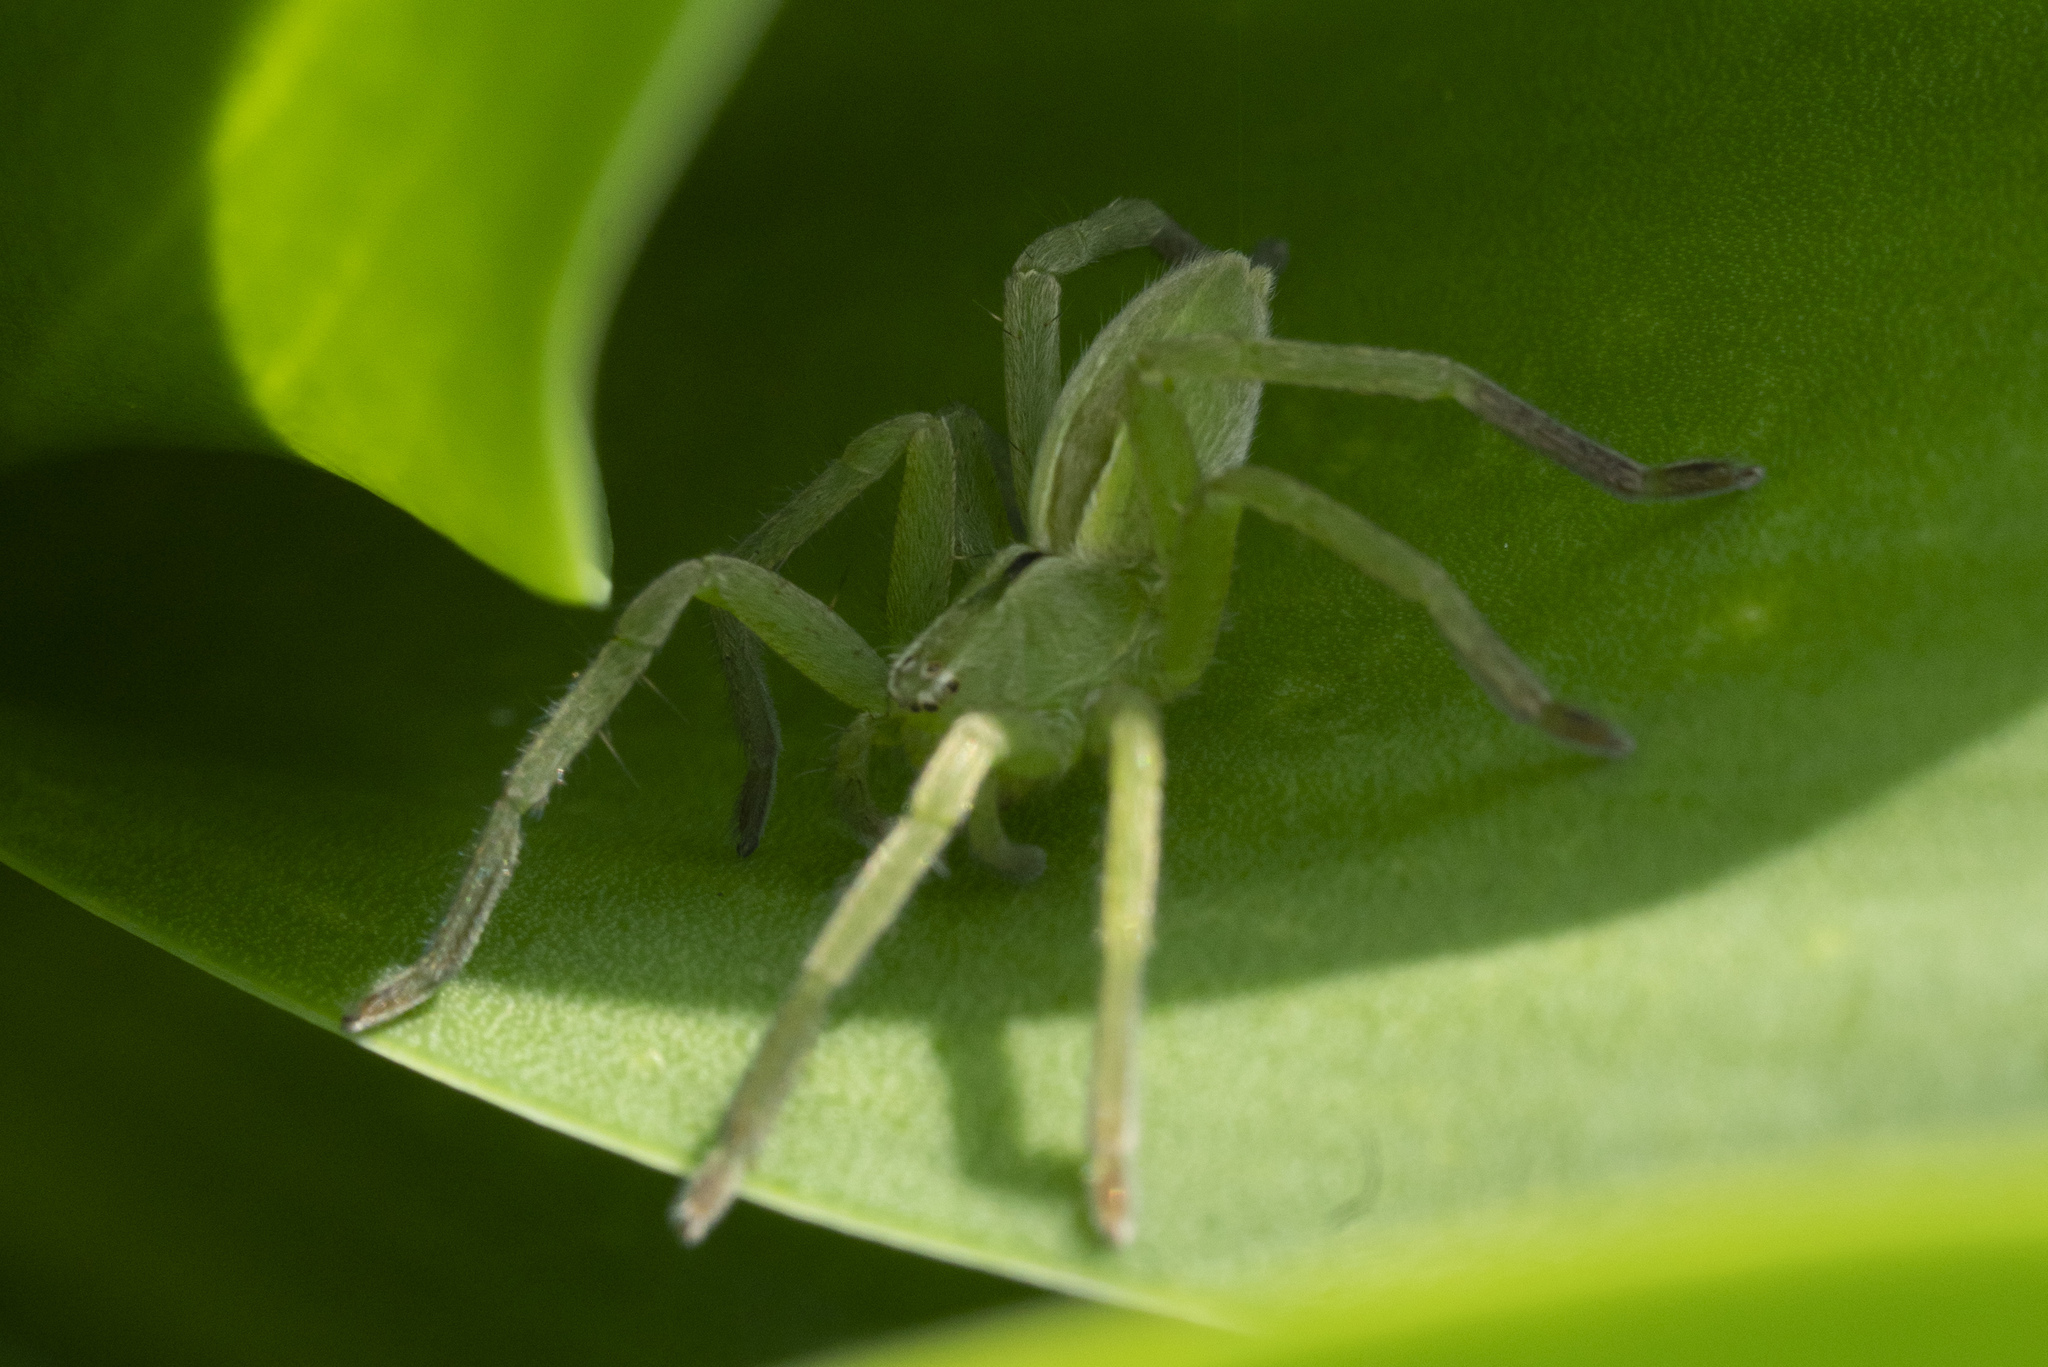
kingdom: Animalia
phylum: Arthropoda
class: Arachnida
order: Araneae
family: Sparassidae
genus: Micrommata
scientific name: Micrommata ligurina
